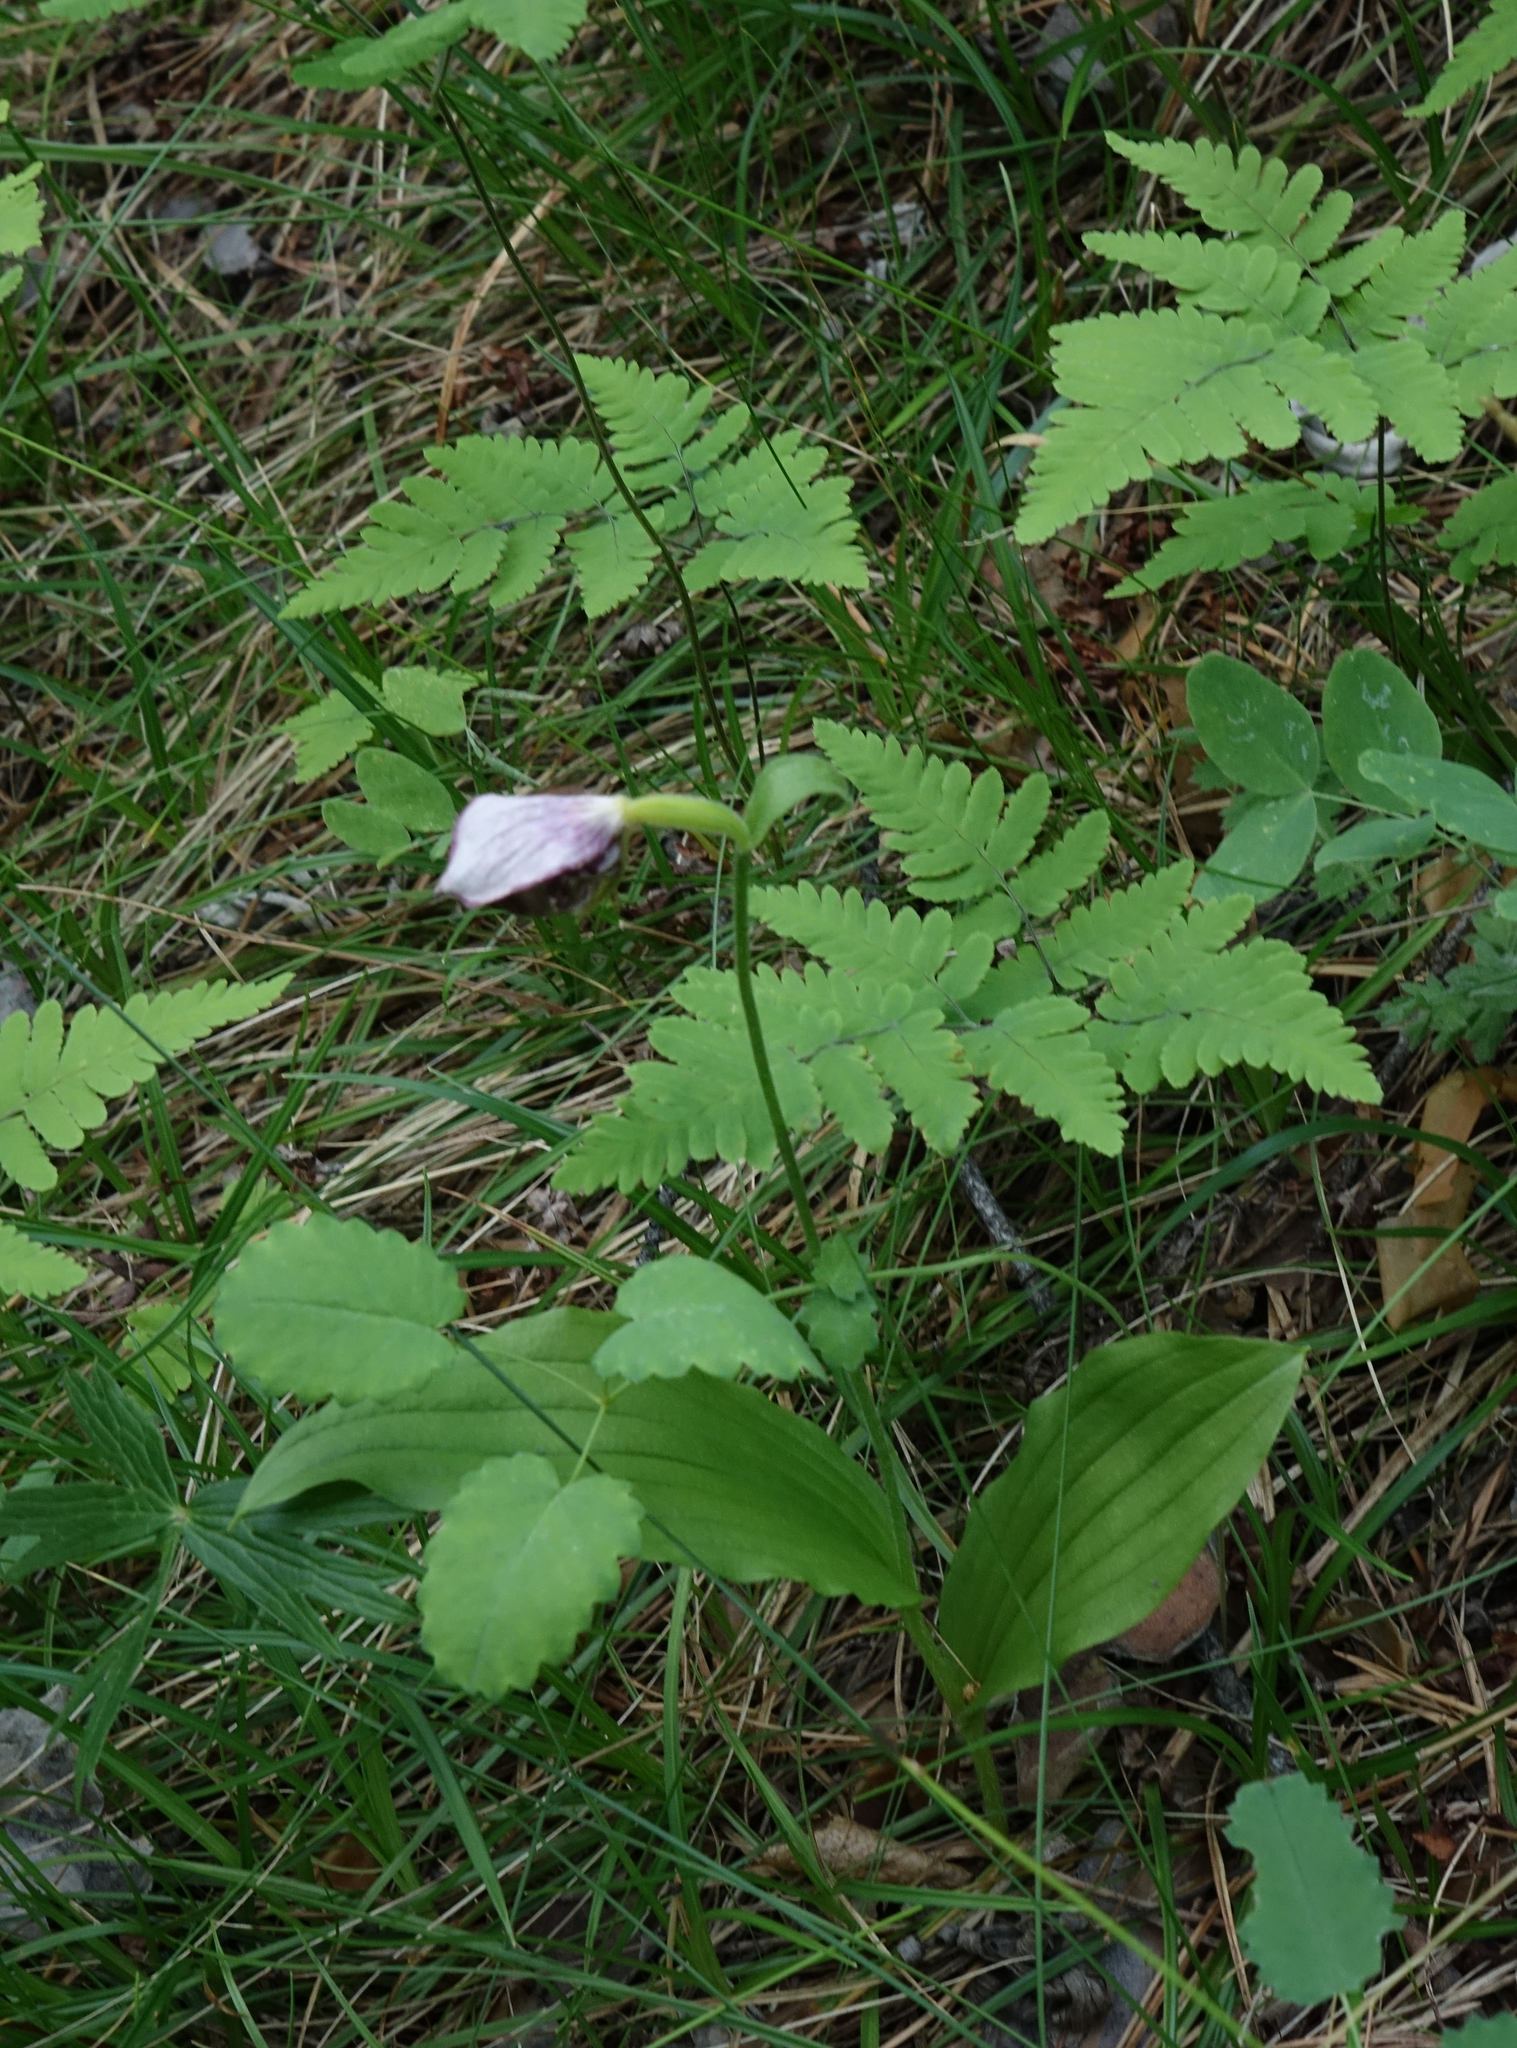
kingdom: Plantae
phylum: Tracheophyta
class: Liliopsida
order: Asparagales
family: Orchidaceae
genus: Cypripedium
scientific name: Cypripedium guttatum
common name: Pink lady slipper
